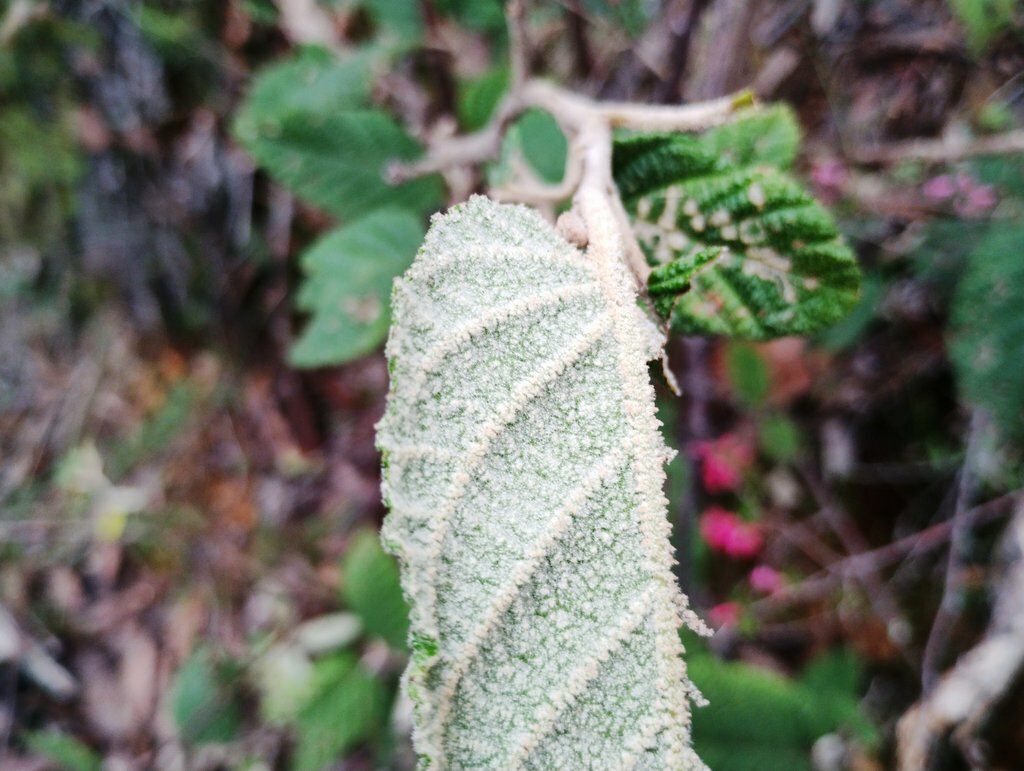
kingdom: Plantae
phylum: Tracheophyta
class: Magnoliopsida
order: Rosales
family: Rhamnaceae
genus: Pomaderris
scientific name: Pomaderris aspera
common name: Hazel pomaderris
